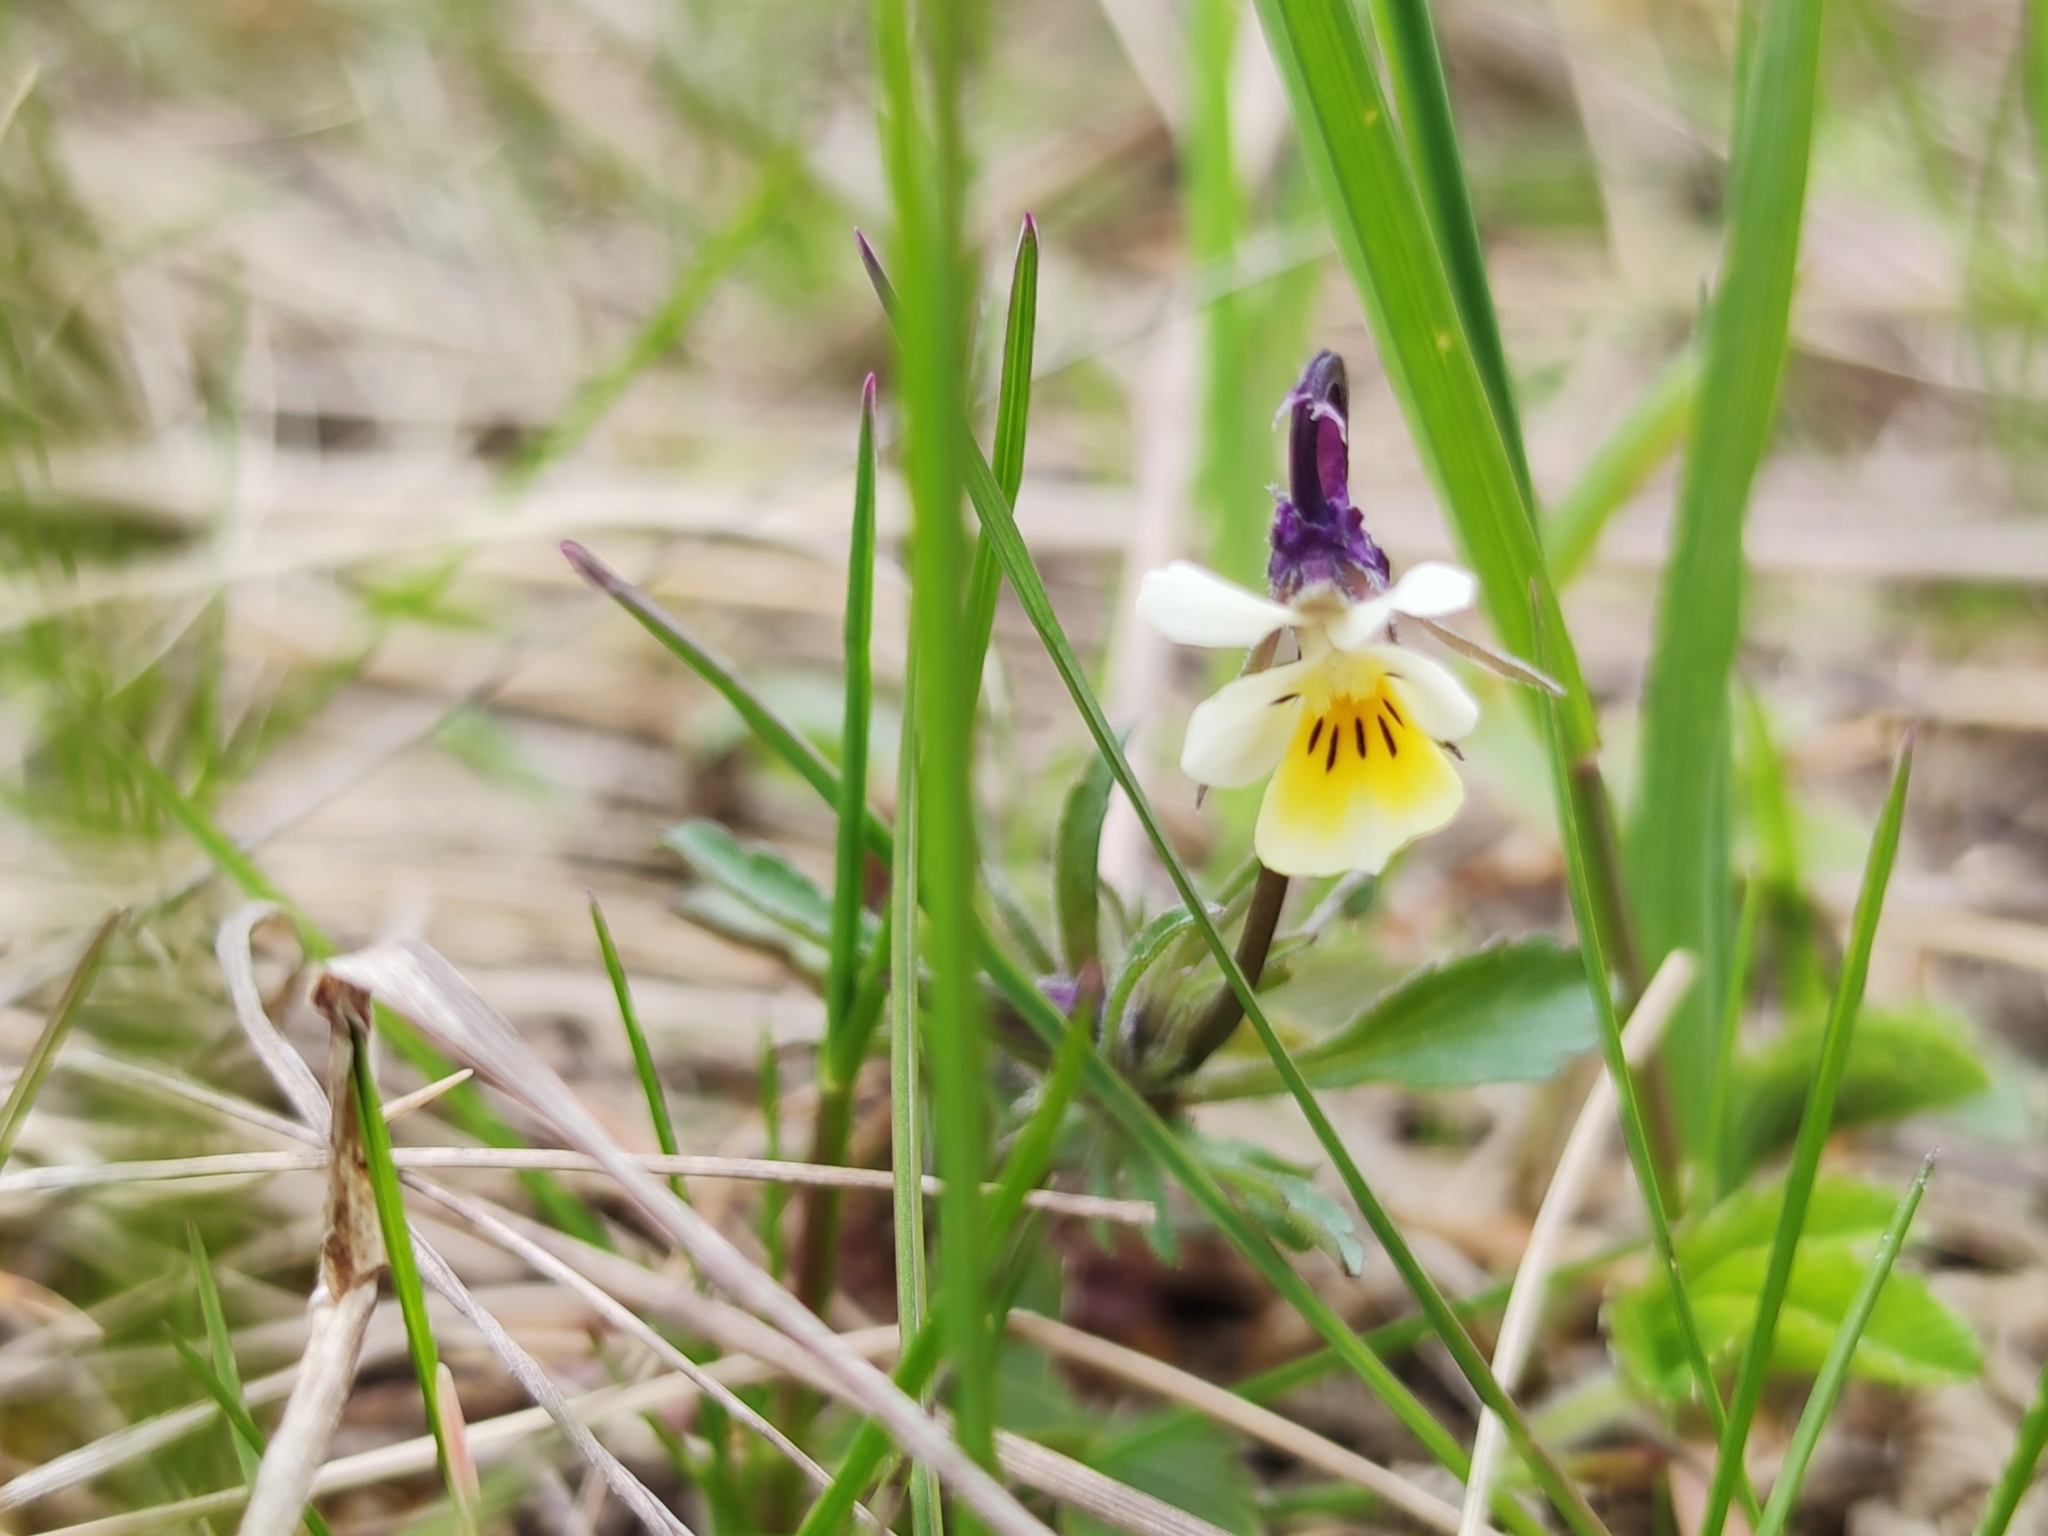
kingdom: Plantae
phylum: Tracheophyta
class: Magnoliopsida
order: Malpighiales
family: Violaceae
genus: Viola
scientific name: Viola arvensis
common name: Field pansy
